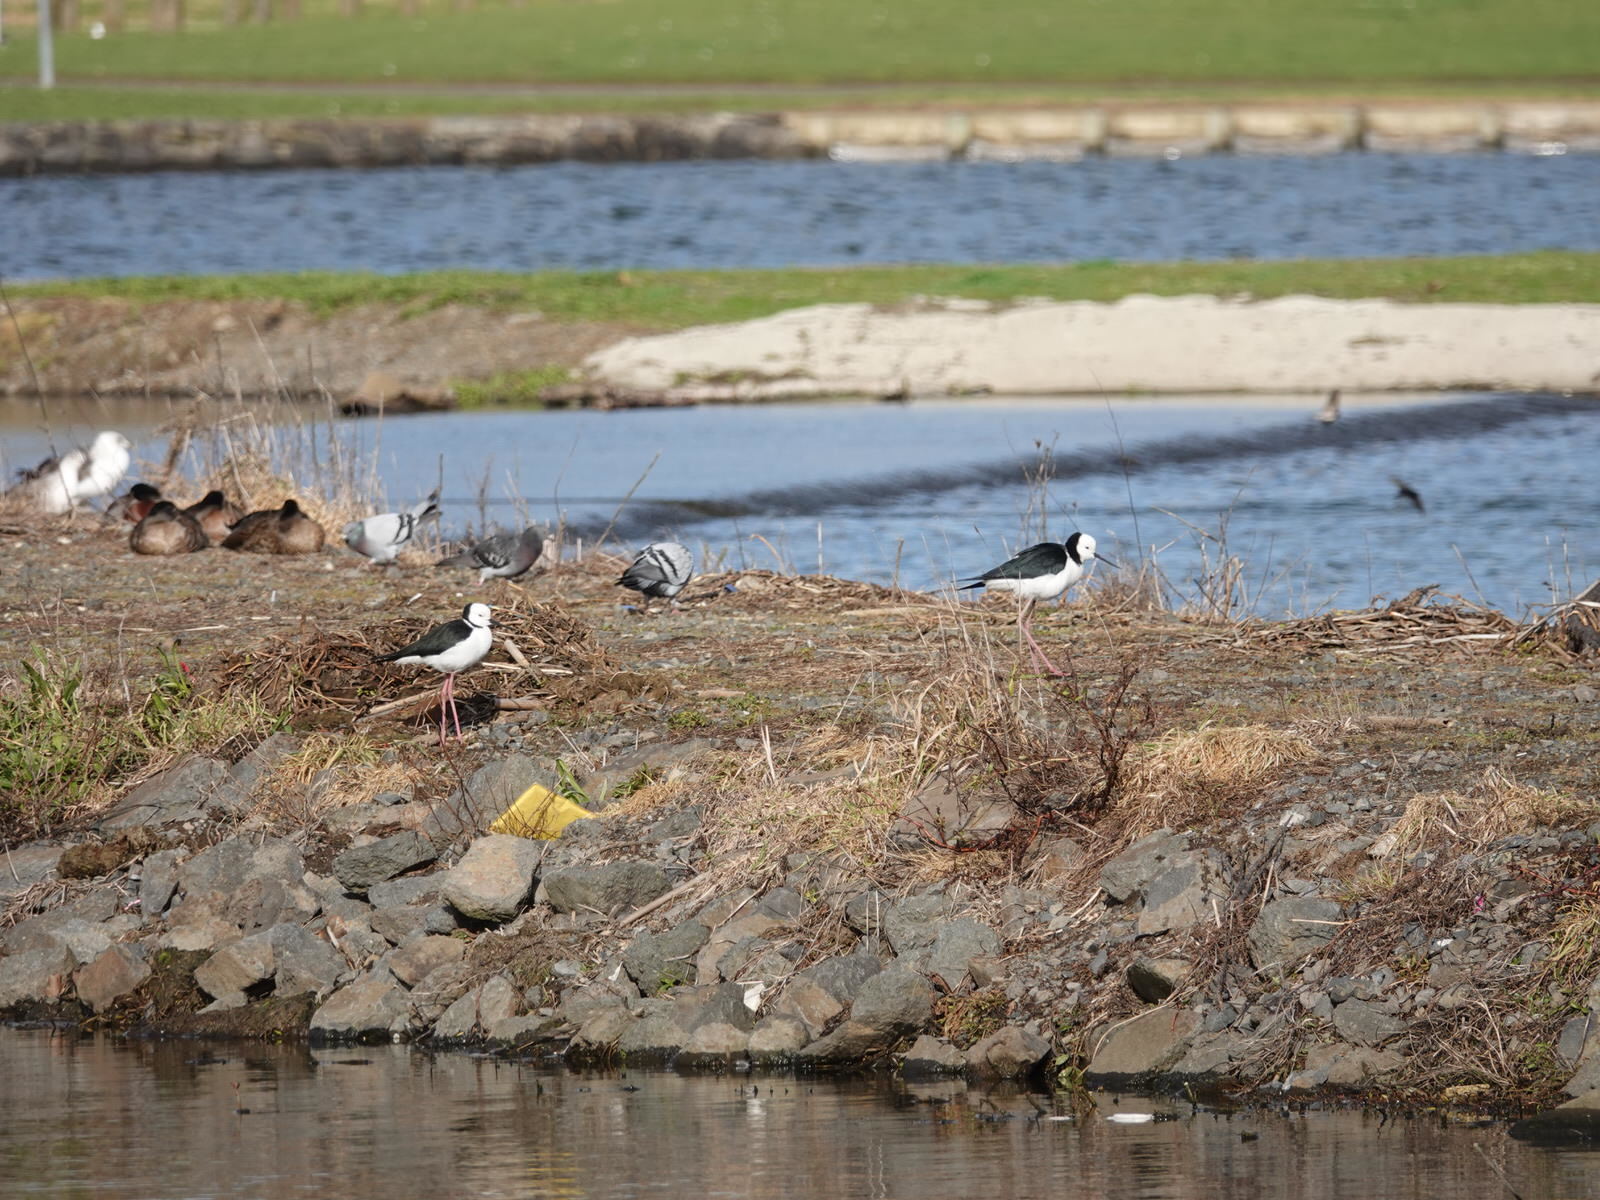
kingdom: Animalia
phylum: Chordata
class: Aves
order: Charadriiformes
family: Recurvirostridae
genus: Himantopus
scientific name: Himantopus leucocephalus
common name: White-headed stilt
